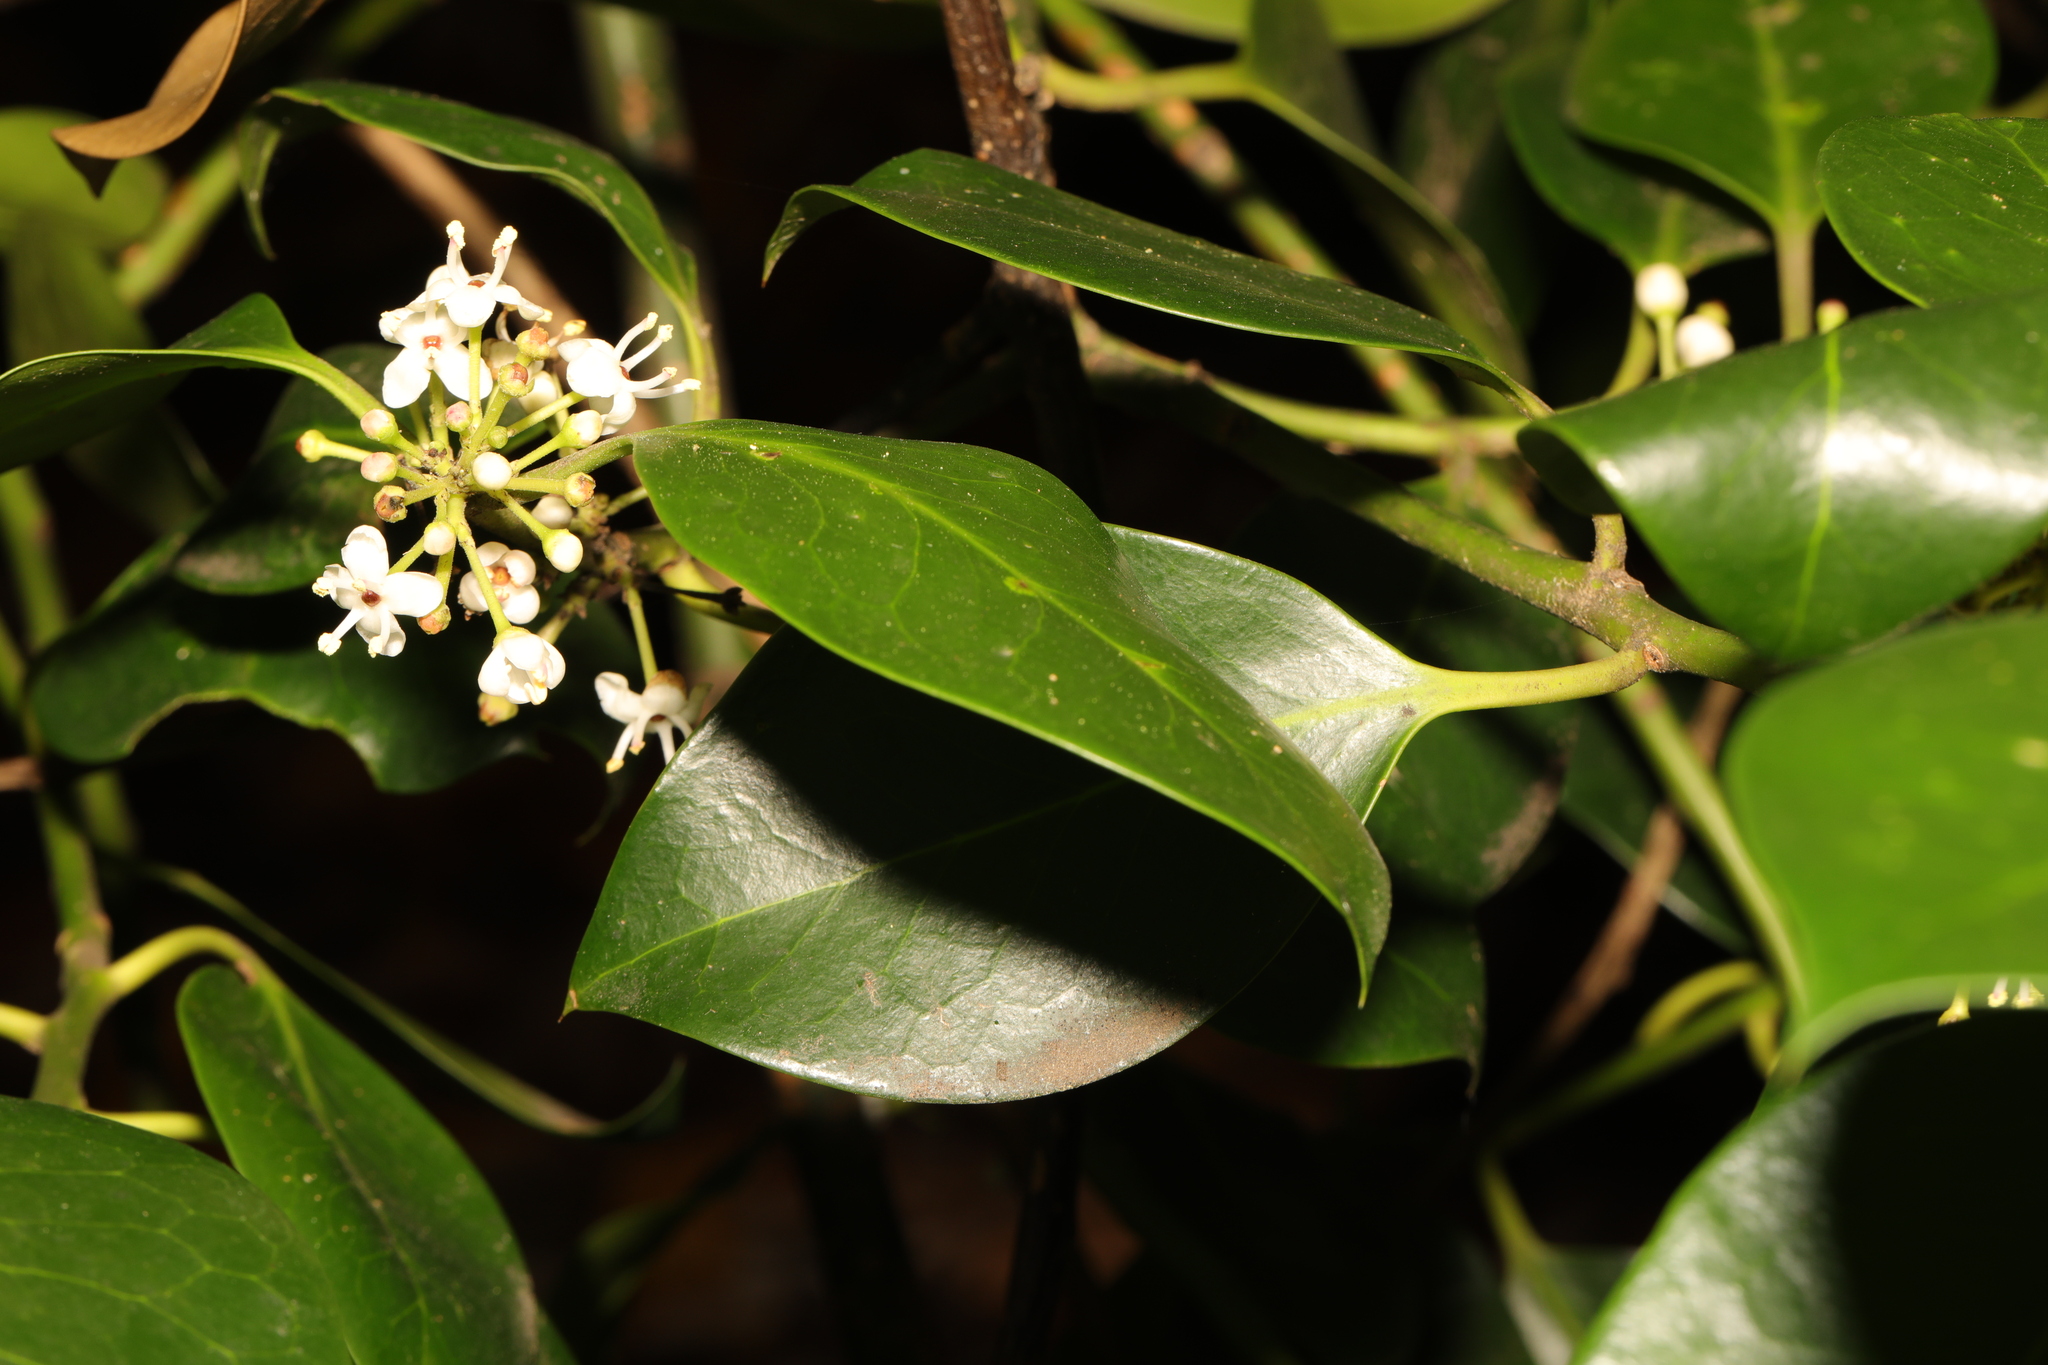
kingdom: Plantae
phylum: Tracheophyta
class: Magnoliopsida
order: Aquifoliales
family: Aquifoliaceae
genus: Ilex
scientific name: Ilex aquifolium
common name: English holly
